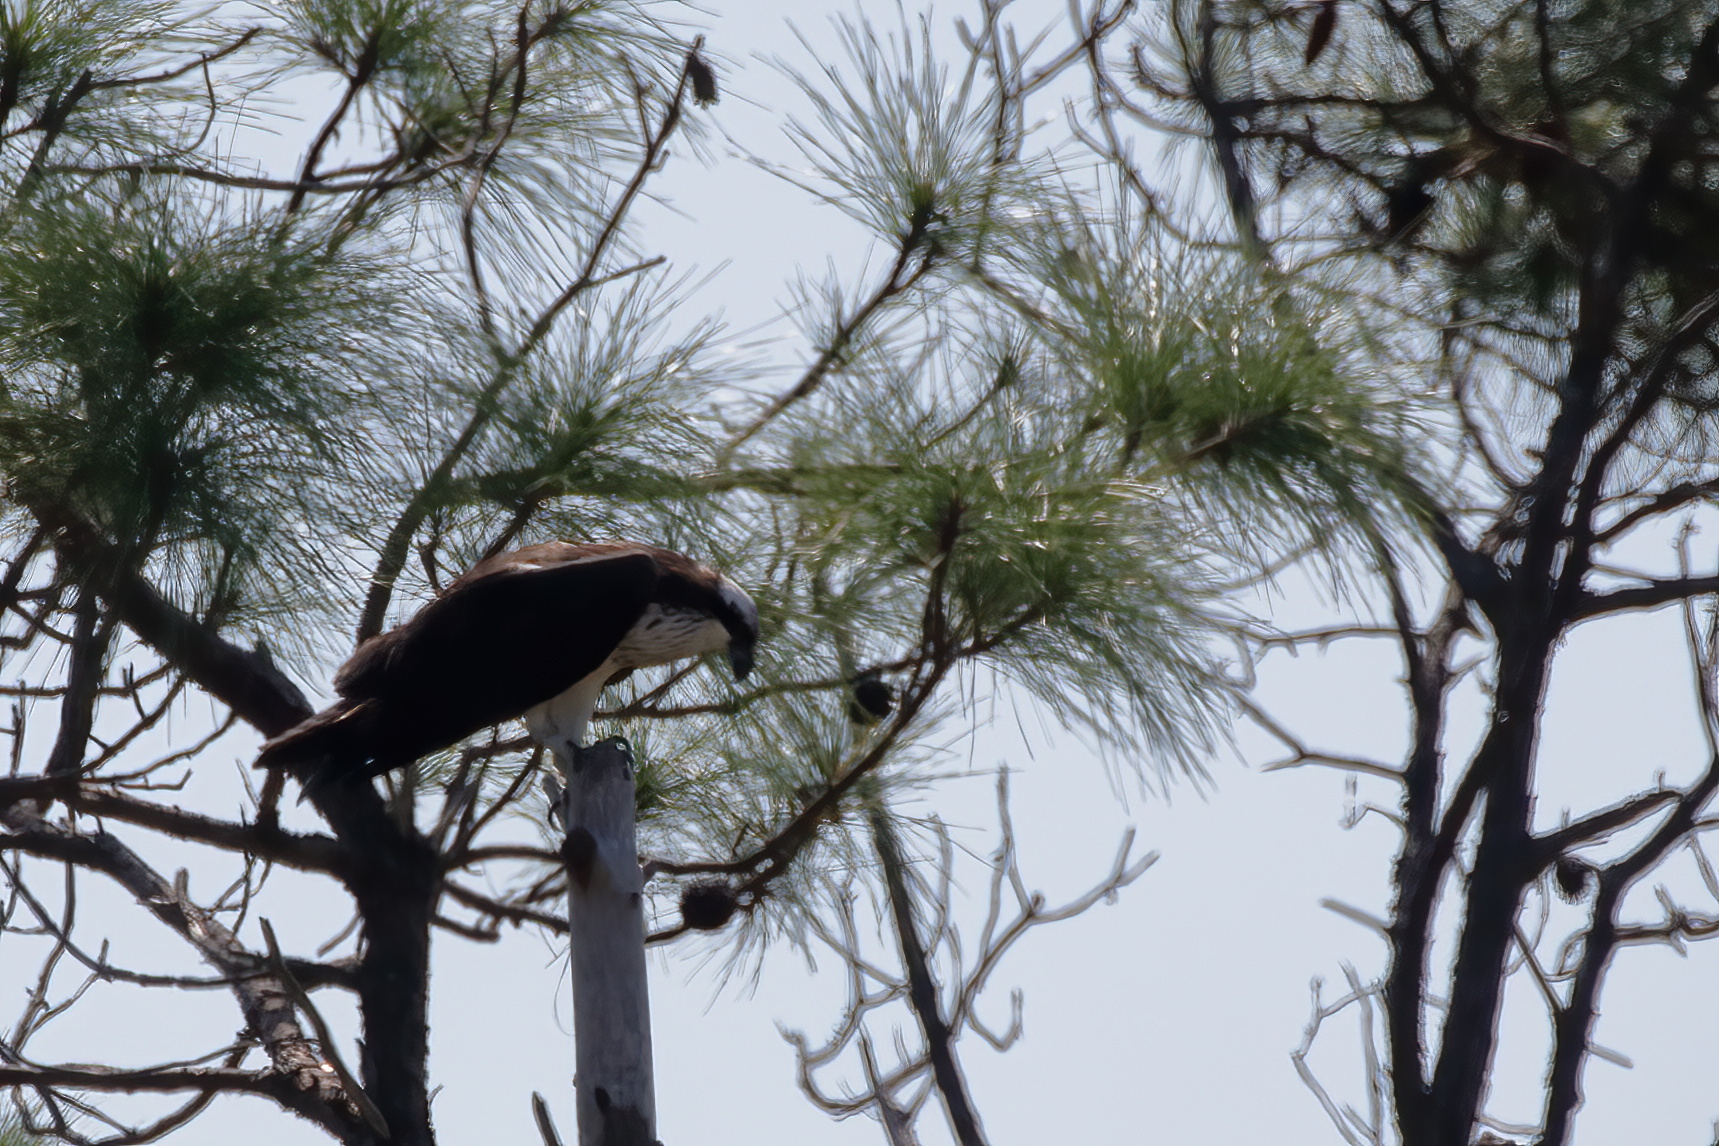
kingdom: Animalia
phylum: Chordata
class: Aves
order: Accipitriformes
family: Pandionidae
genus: Pandion
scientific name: Pandion haliaetus
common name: Osprey
